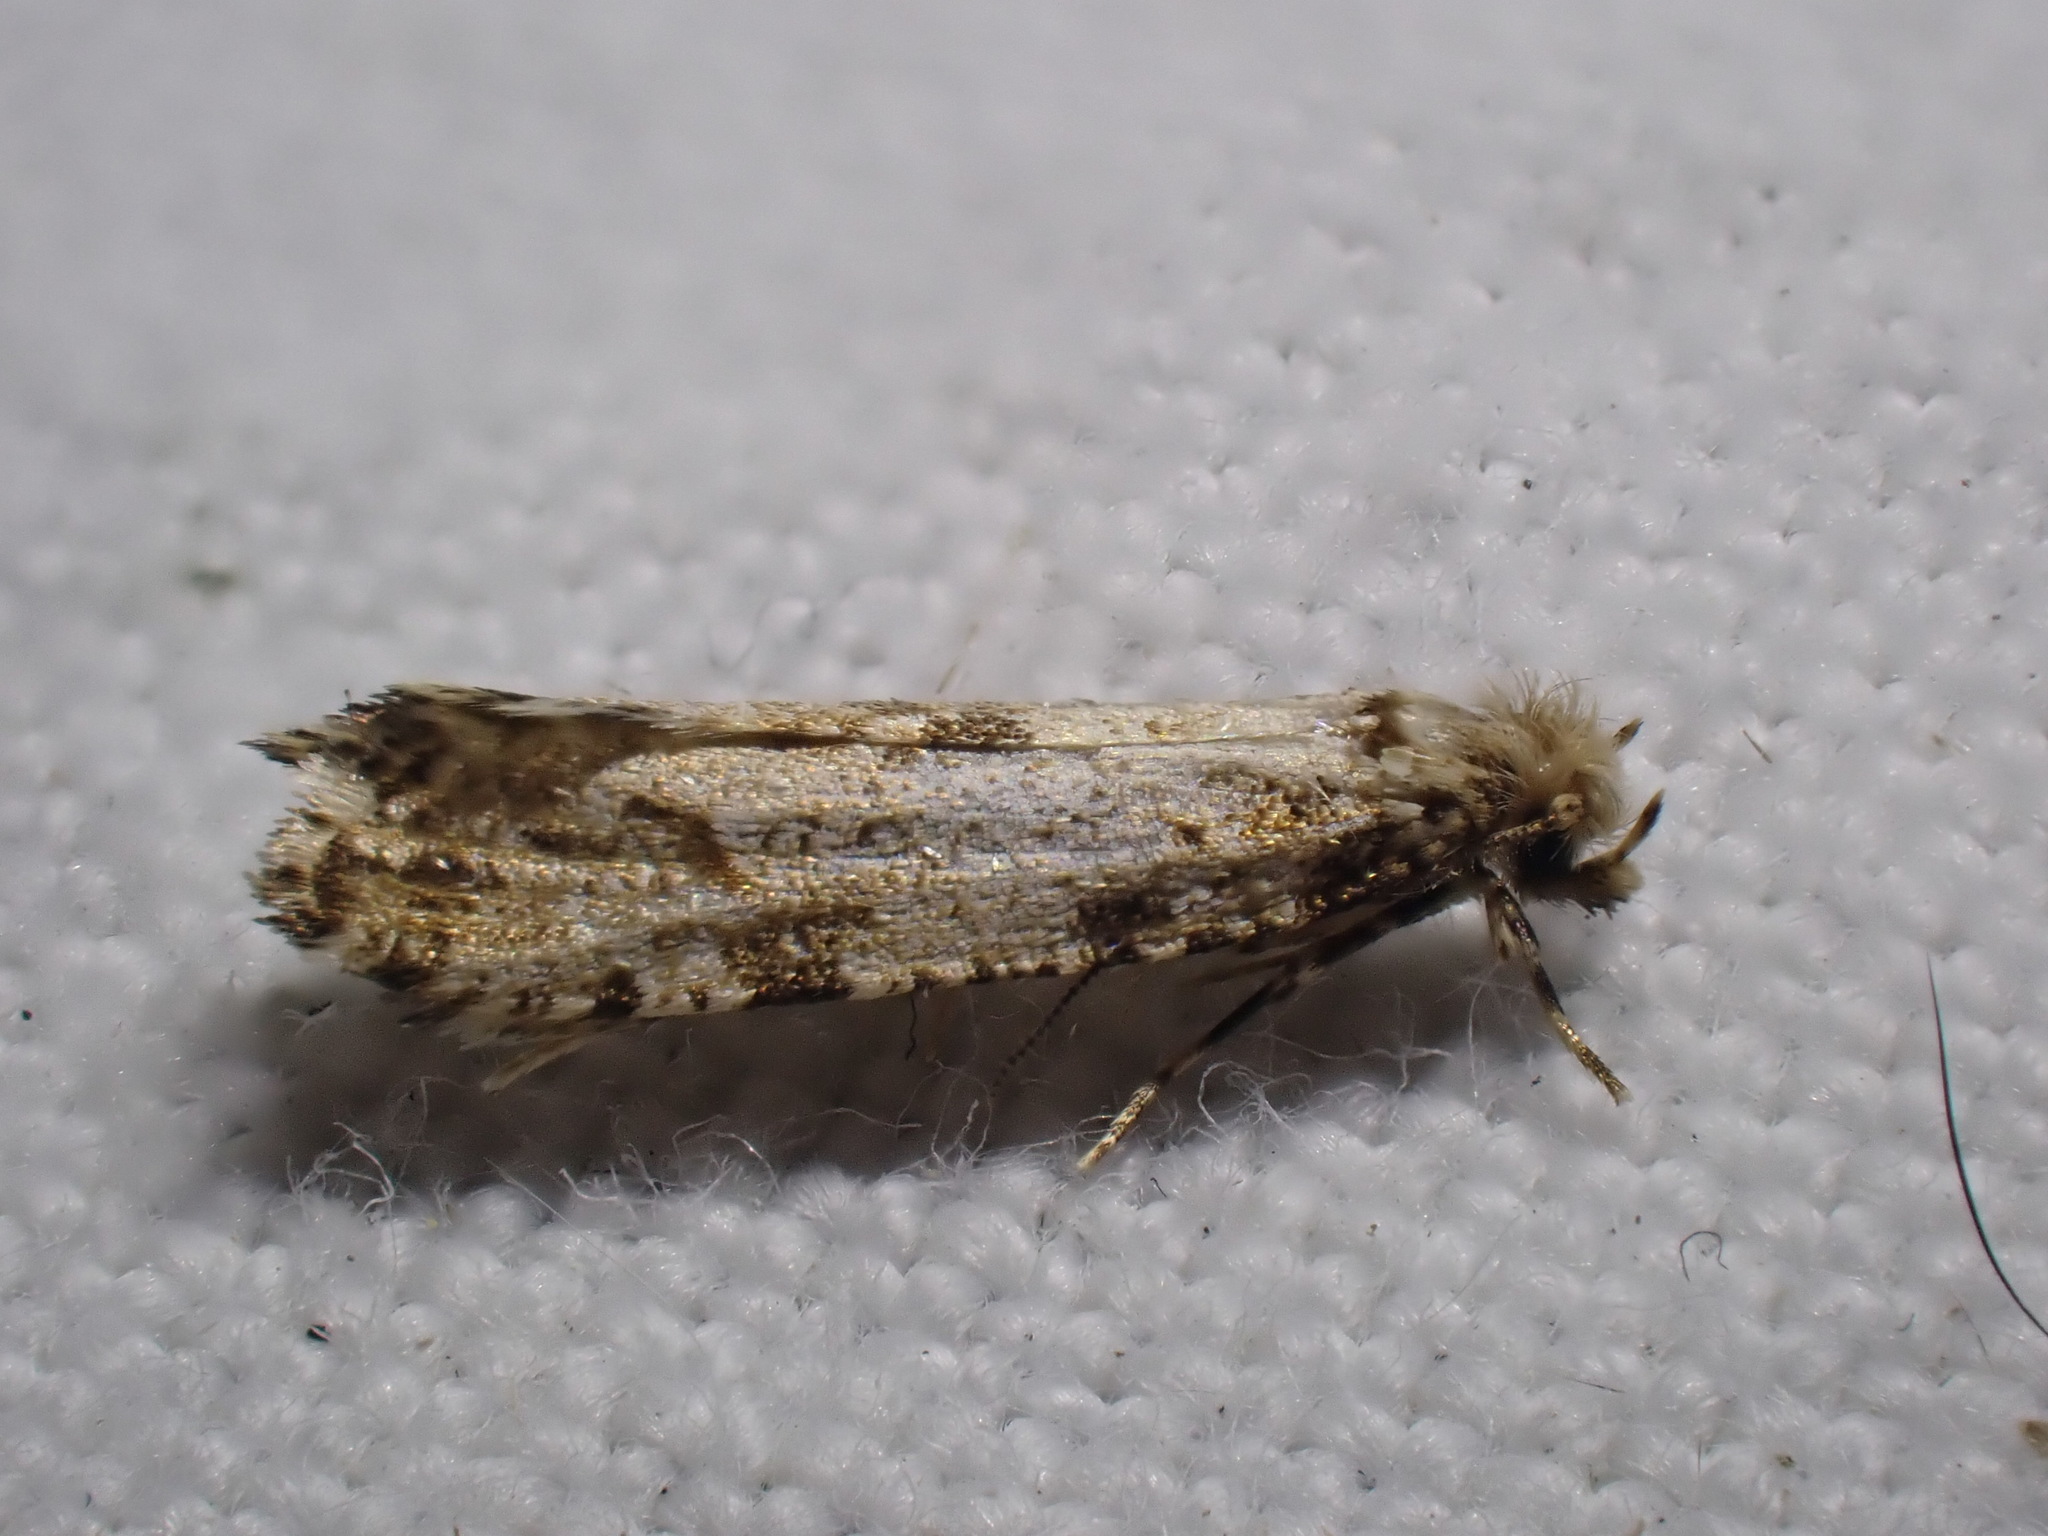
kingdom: Animalia
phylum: Arthropoda
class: Insecta
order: Lepidoptera
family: Tineidae
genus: Morophaga
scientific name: Morophaga choragella
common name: Large clothes
